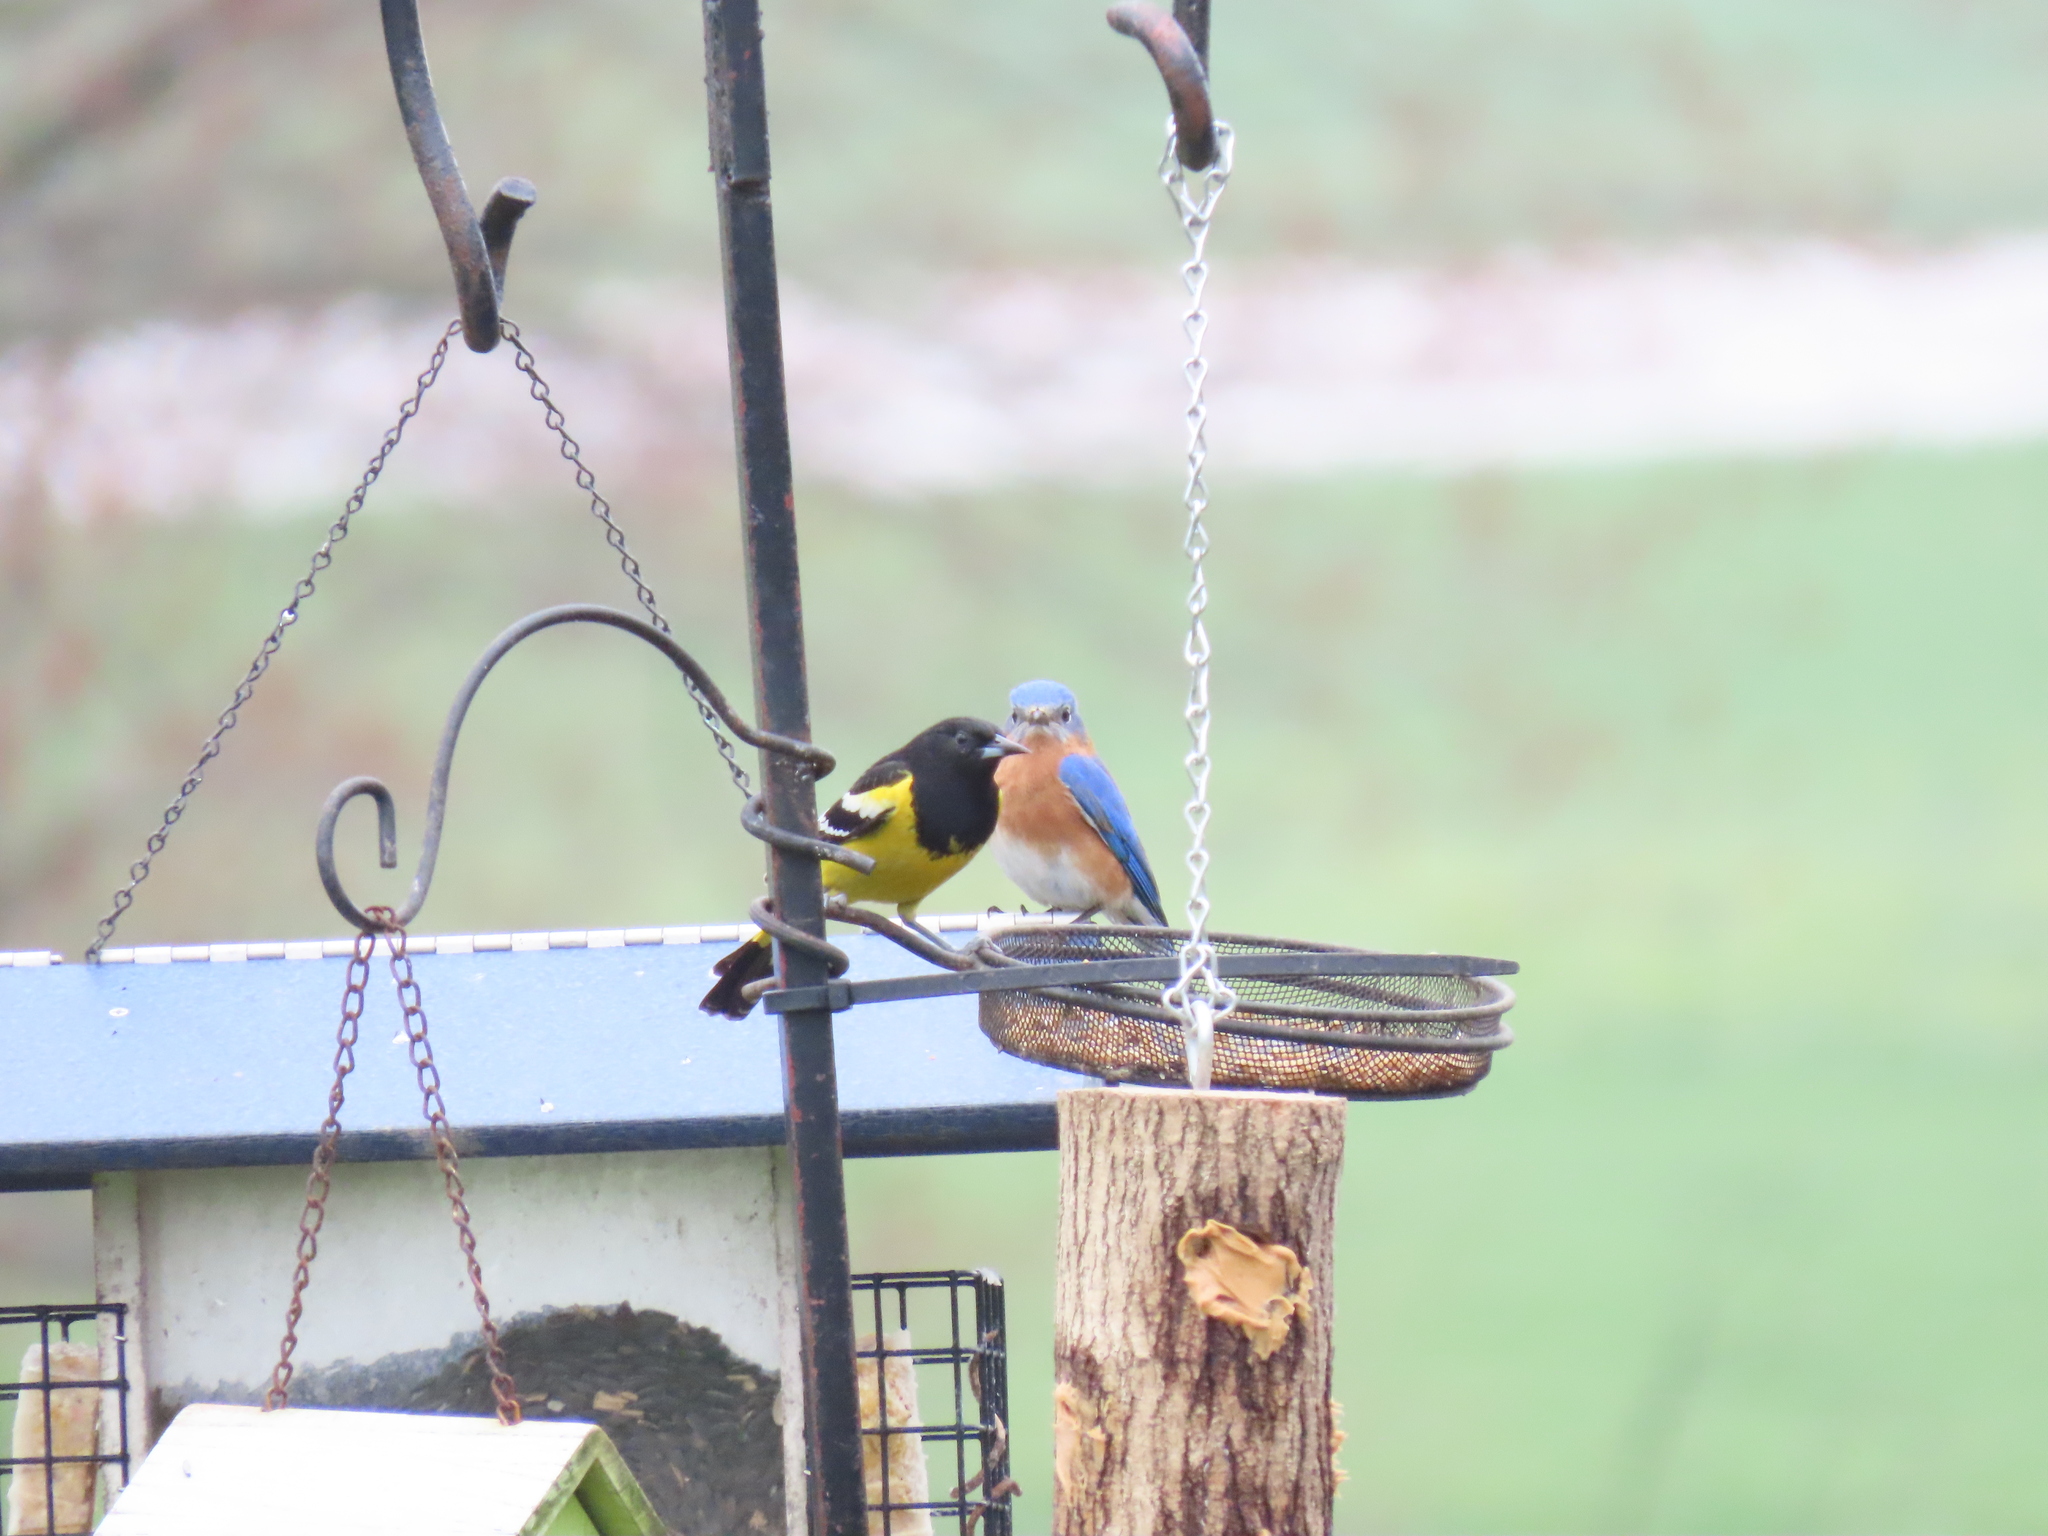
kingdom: Animalia
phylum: Chordata
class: Aves
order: Passeriformes
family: Icteridae
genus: Icterus
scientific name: Icterus parisorum
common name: Scott's oriole
